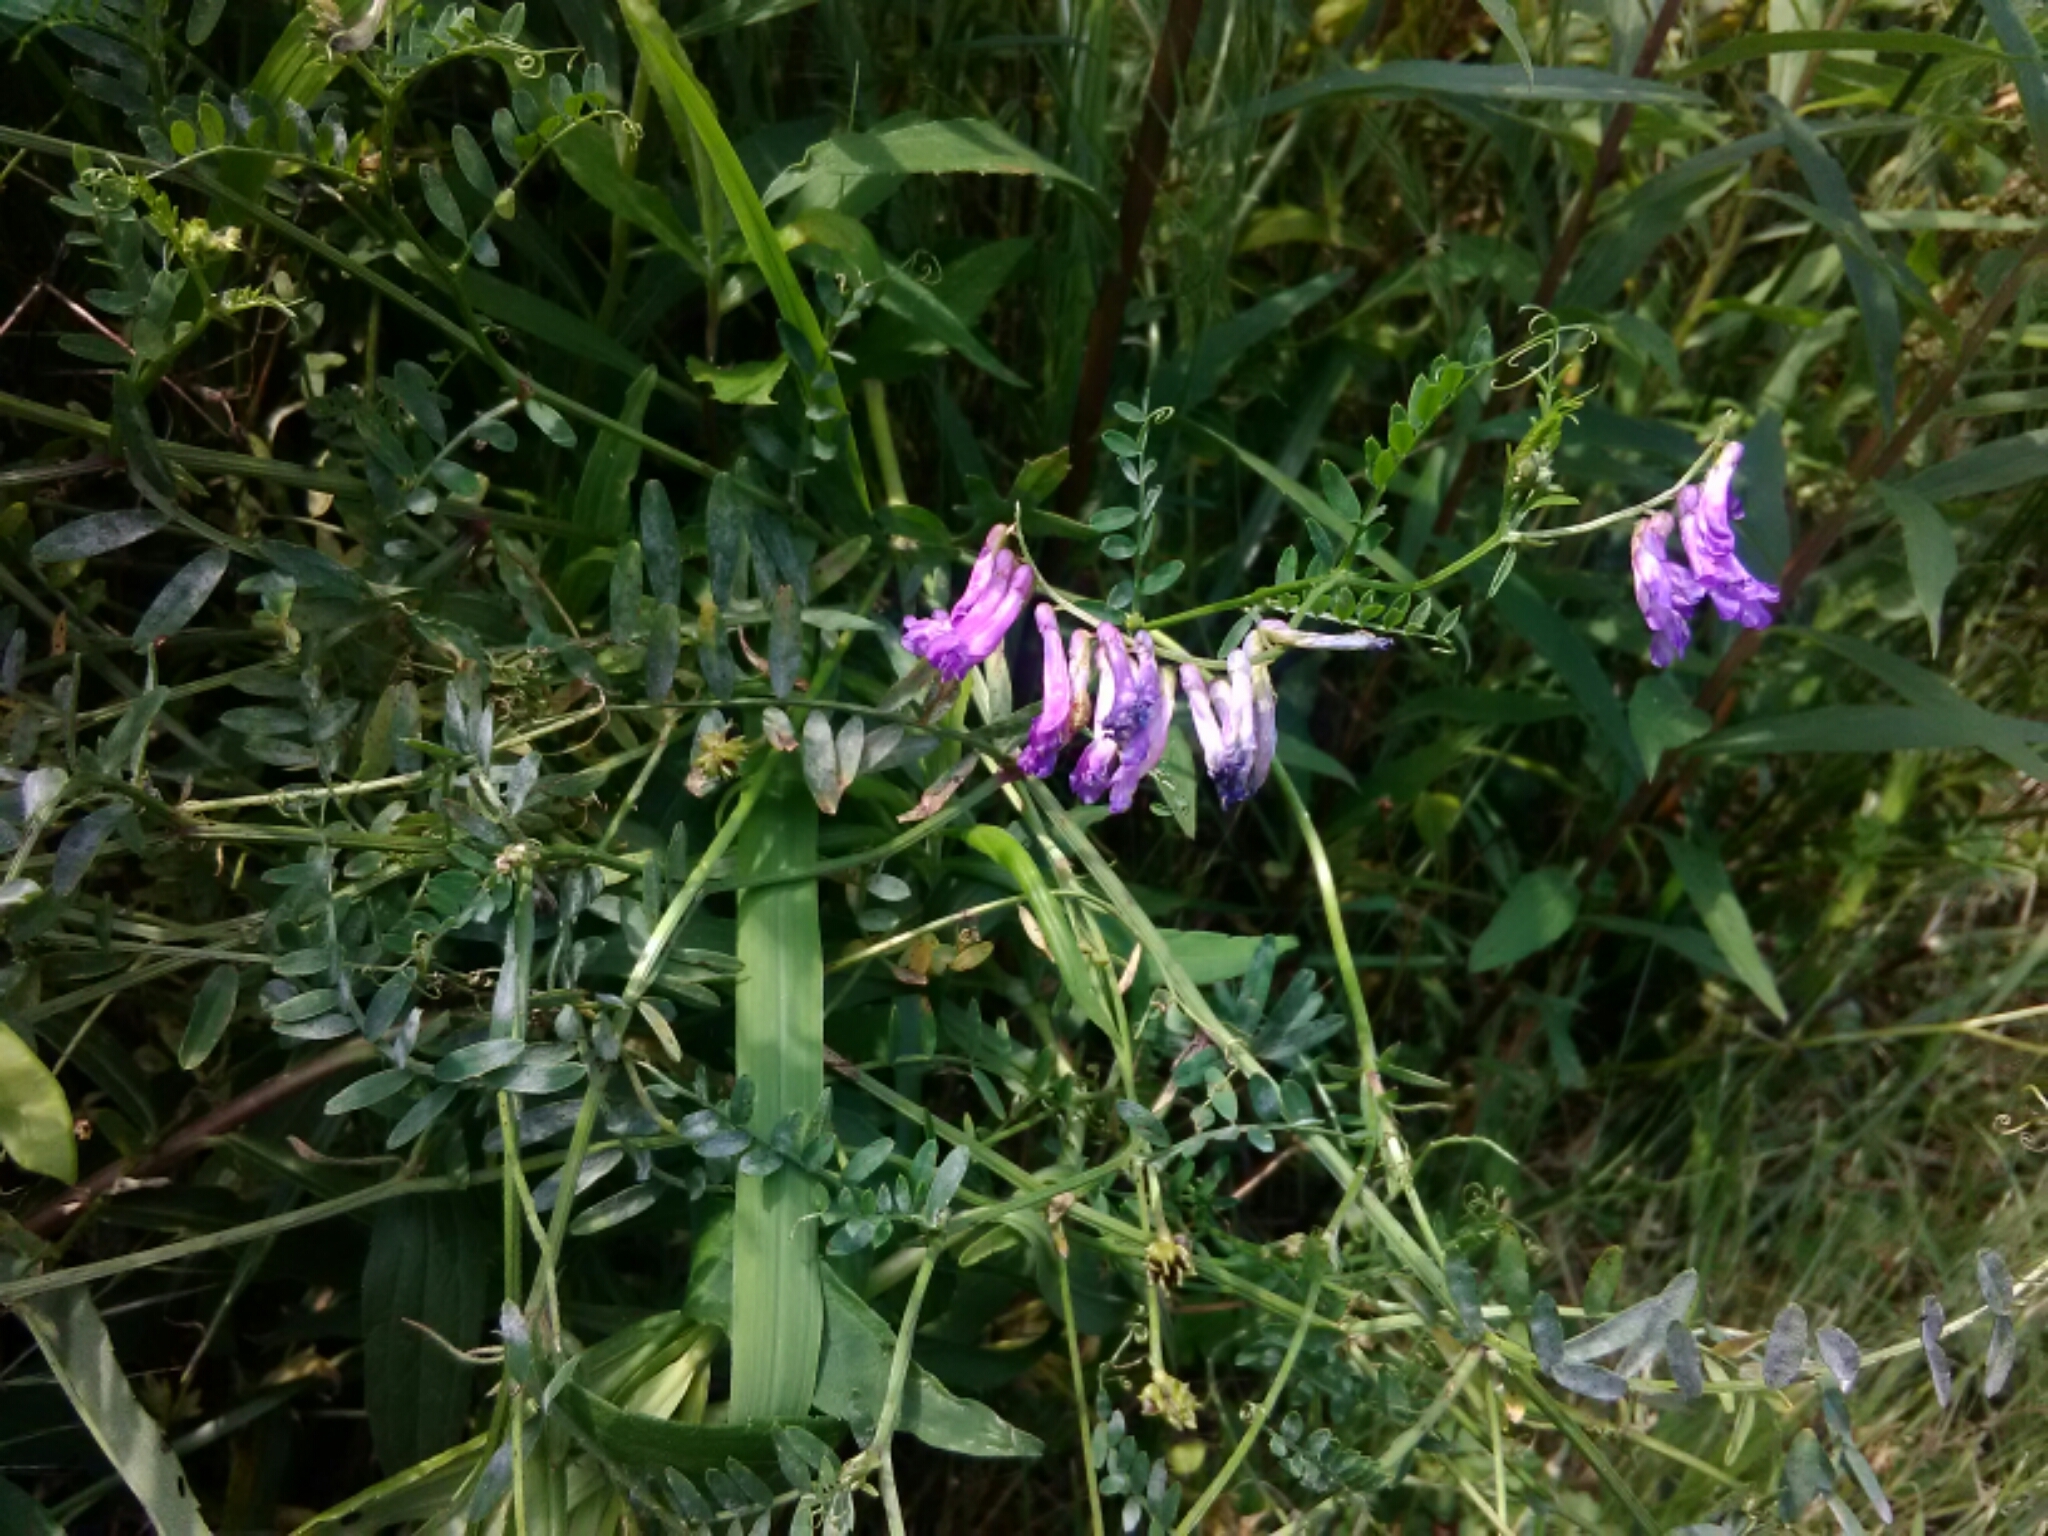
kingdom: Plantae
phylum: Tracheophyta
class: Magnoliopsida
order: Fabales
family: Fabaceae
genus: Vicia
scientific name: Vicia villosa
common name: Fodder vetch
